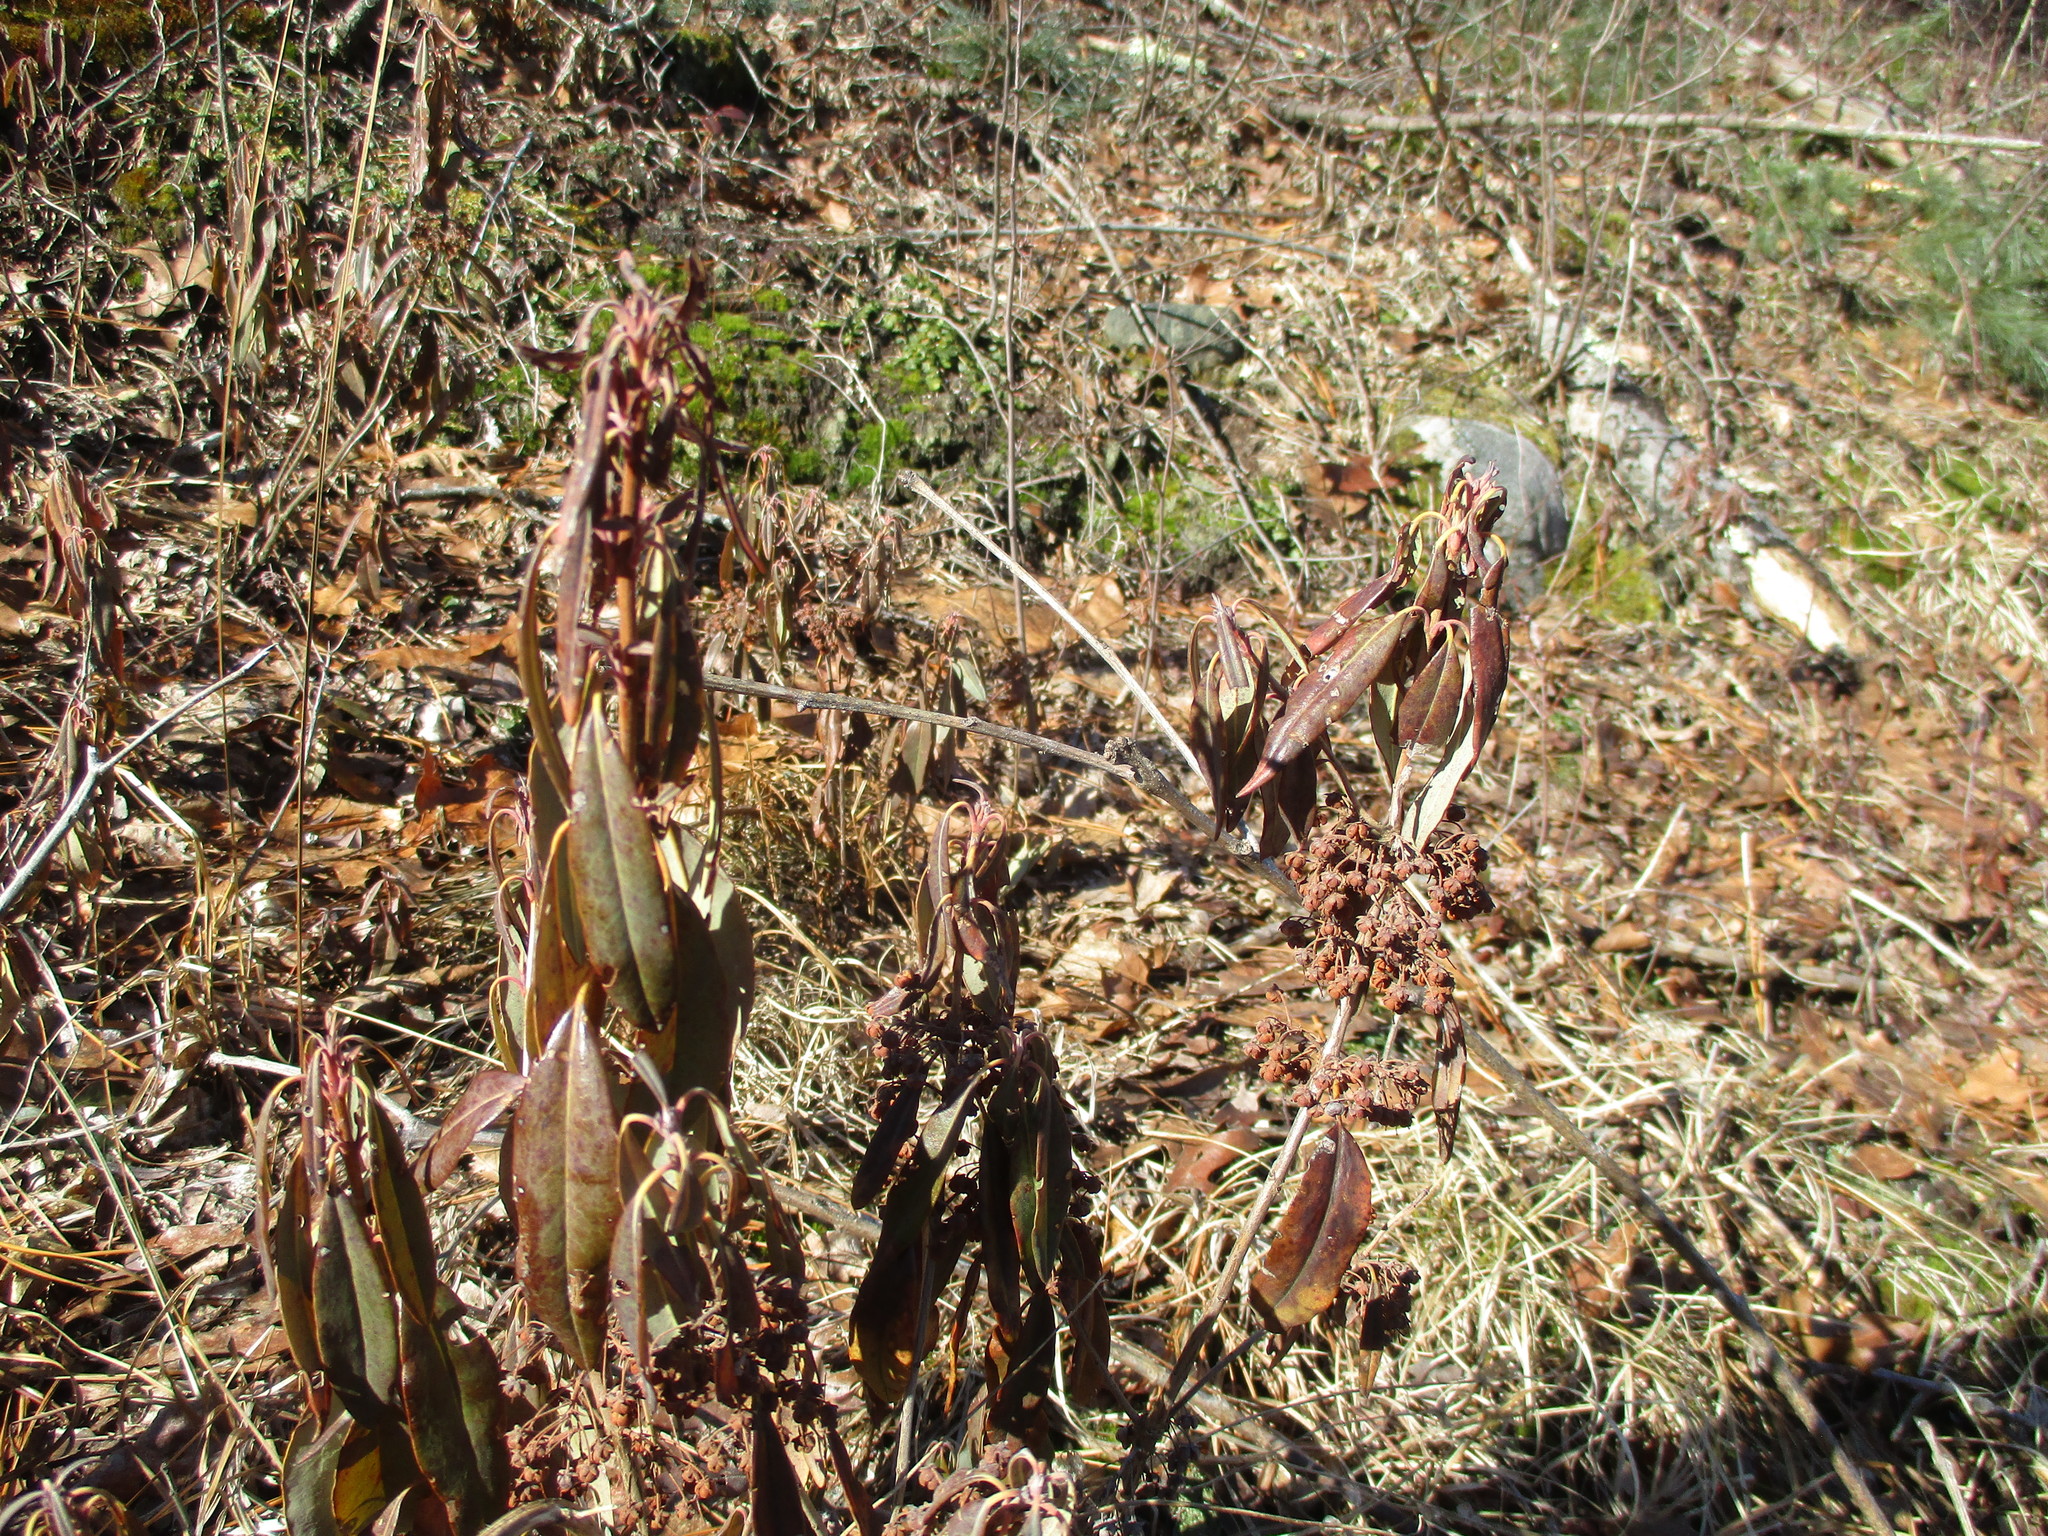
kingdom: Plantae
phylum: Tracheophyta
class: Magnoliopsida
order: Ericales
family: Ericaceae
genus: Kalmia
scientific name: Kalmia angustifolia
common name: Sheep-laurel
